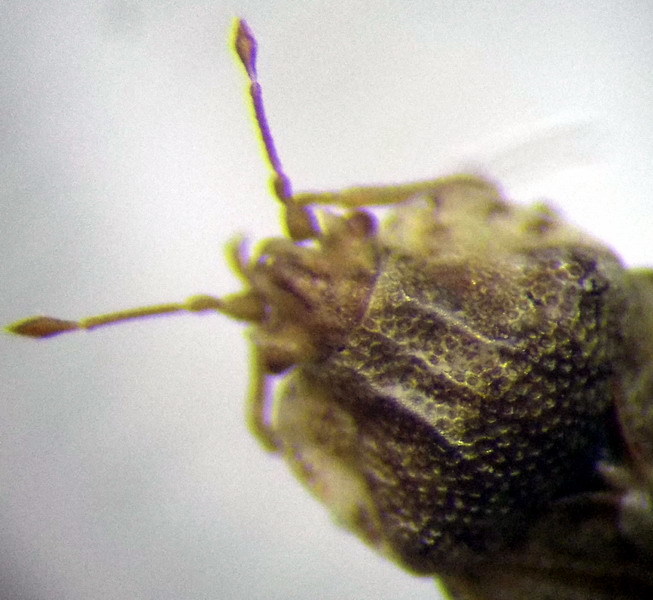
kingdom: Animalia
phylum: Arthropoda
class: Insecta
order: Hemiptera
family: Piesmatidae
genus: Parapiesma
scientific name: Parapiesma quadratum
